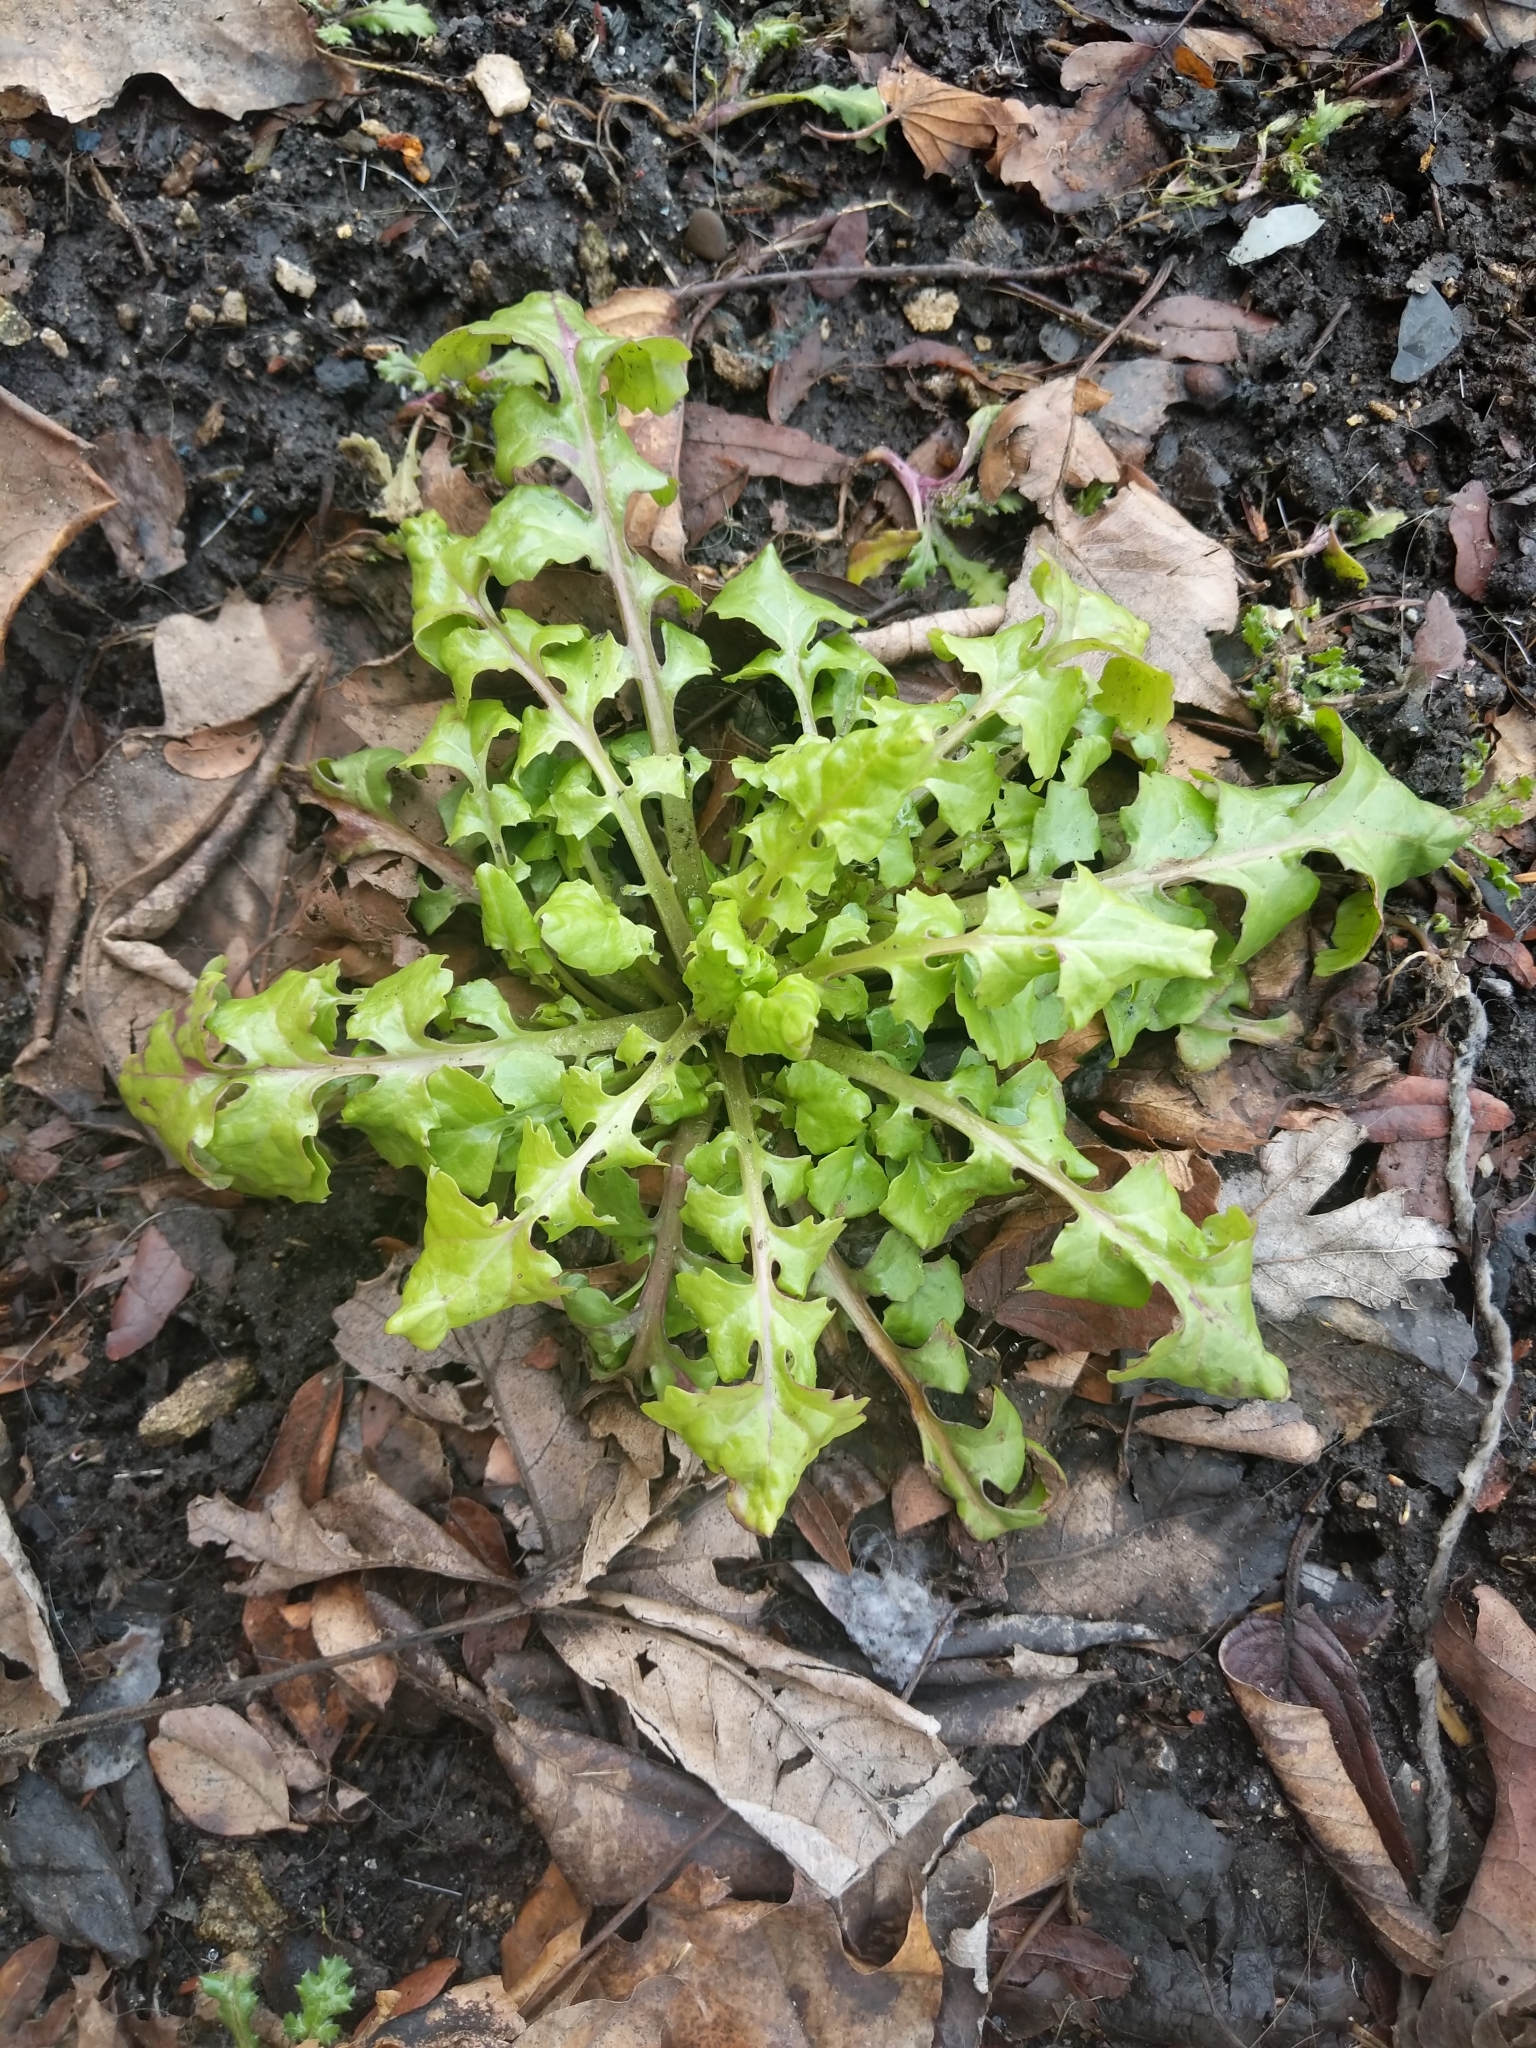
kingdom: Plantae
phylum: Tracheophyta
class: Magnoliopsida
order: Asterales
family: Asteraceae
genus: Packera
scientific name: Packera glabella
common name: Butterweed
